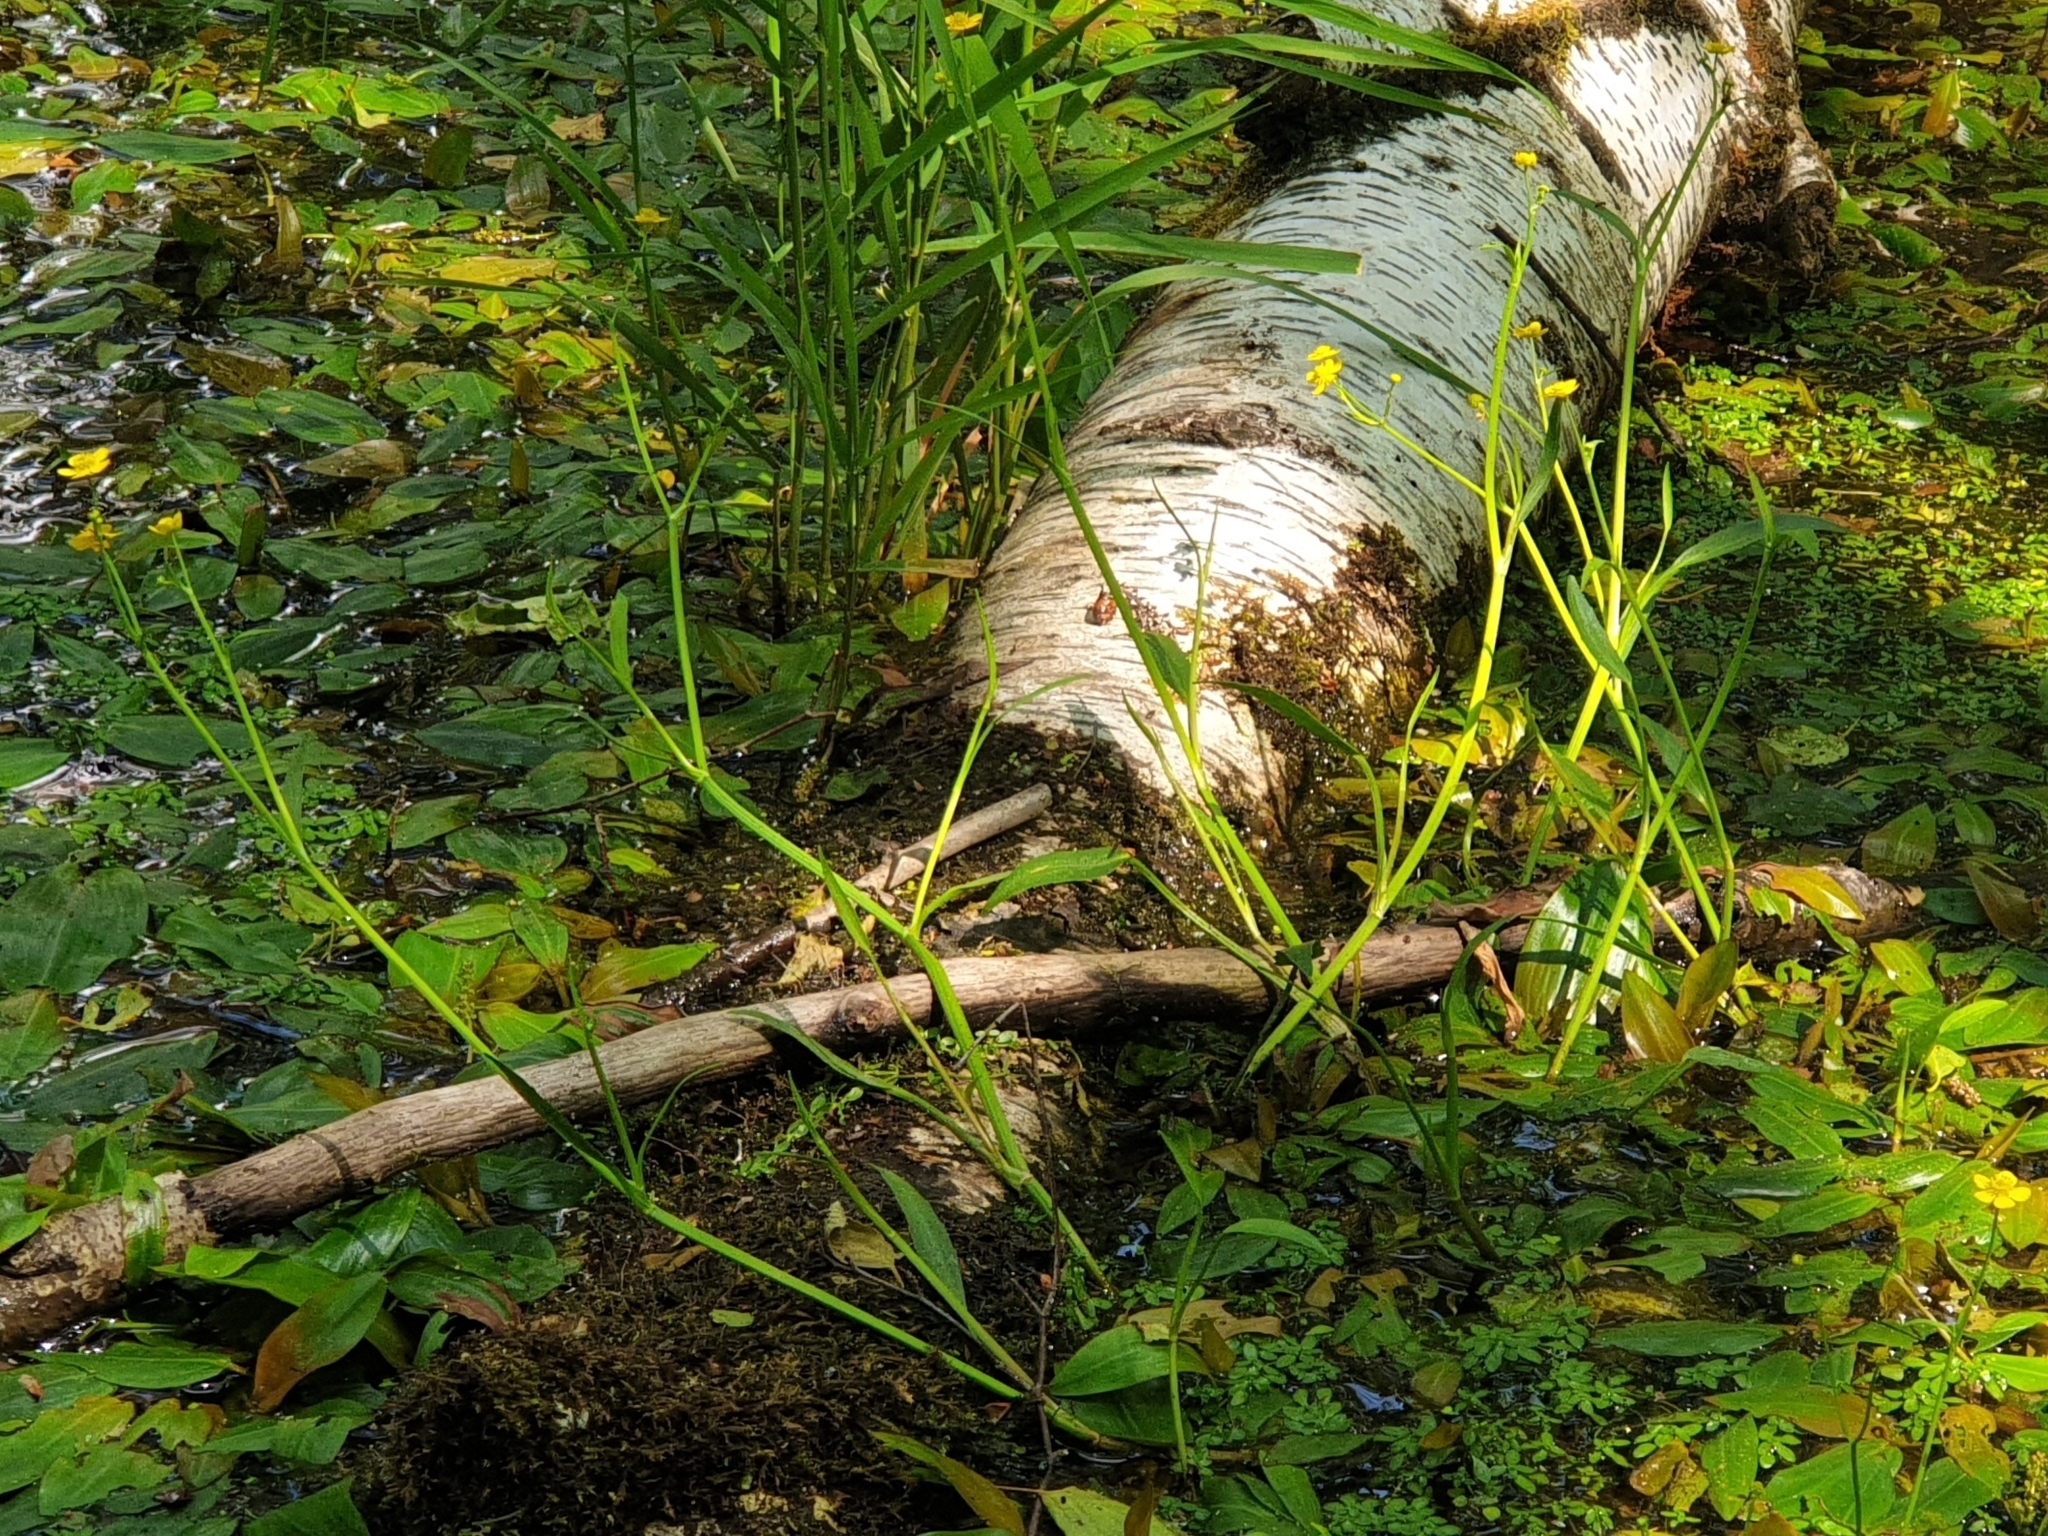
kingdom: Plantae
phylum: Tracheophyta
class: Magnoliopsida
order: Ranunculales
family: Ranunculaceae
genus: Ranunculus
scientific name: Ranunculus flammula
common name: Lesser spearwort
